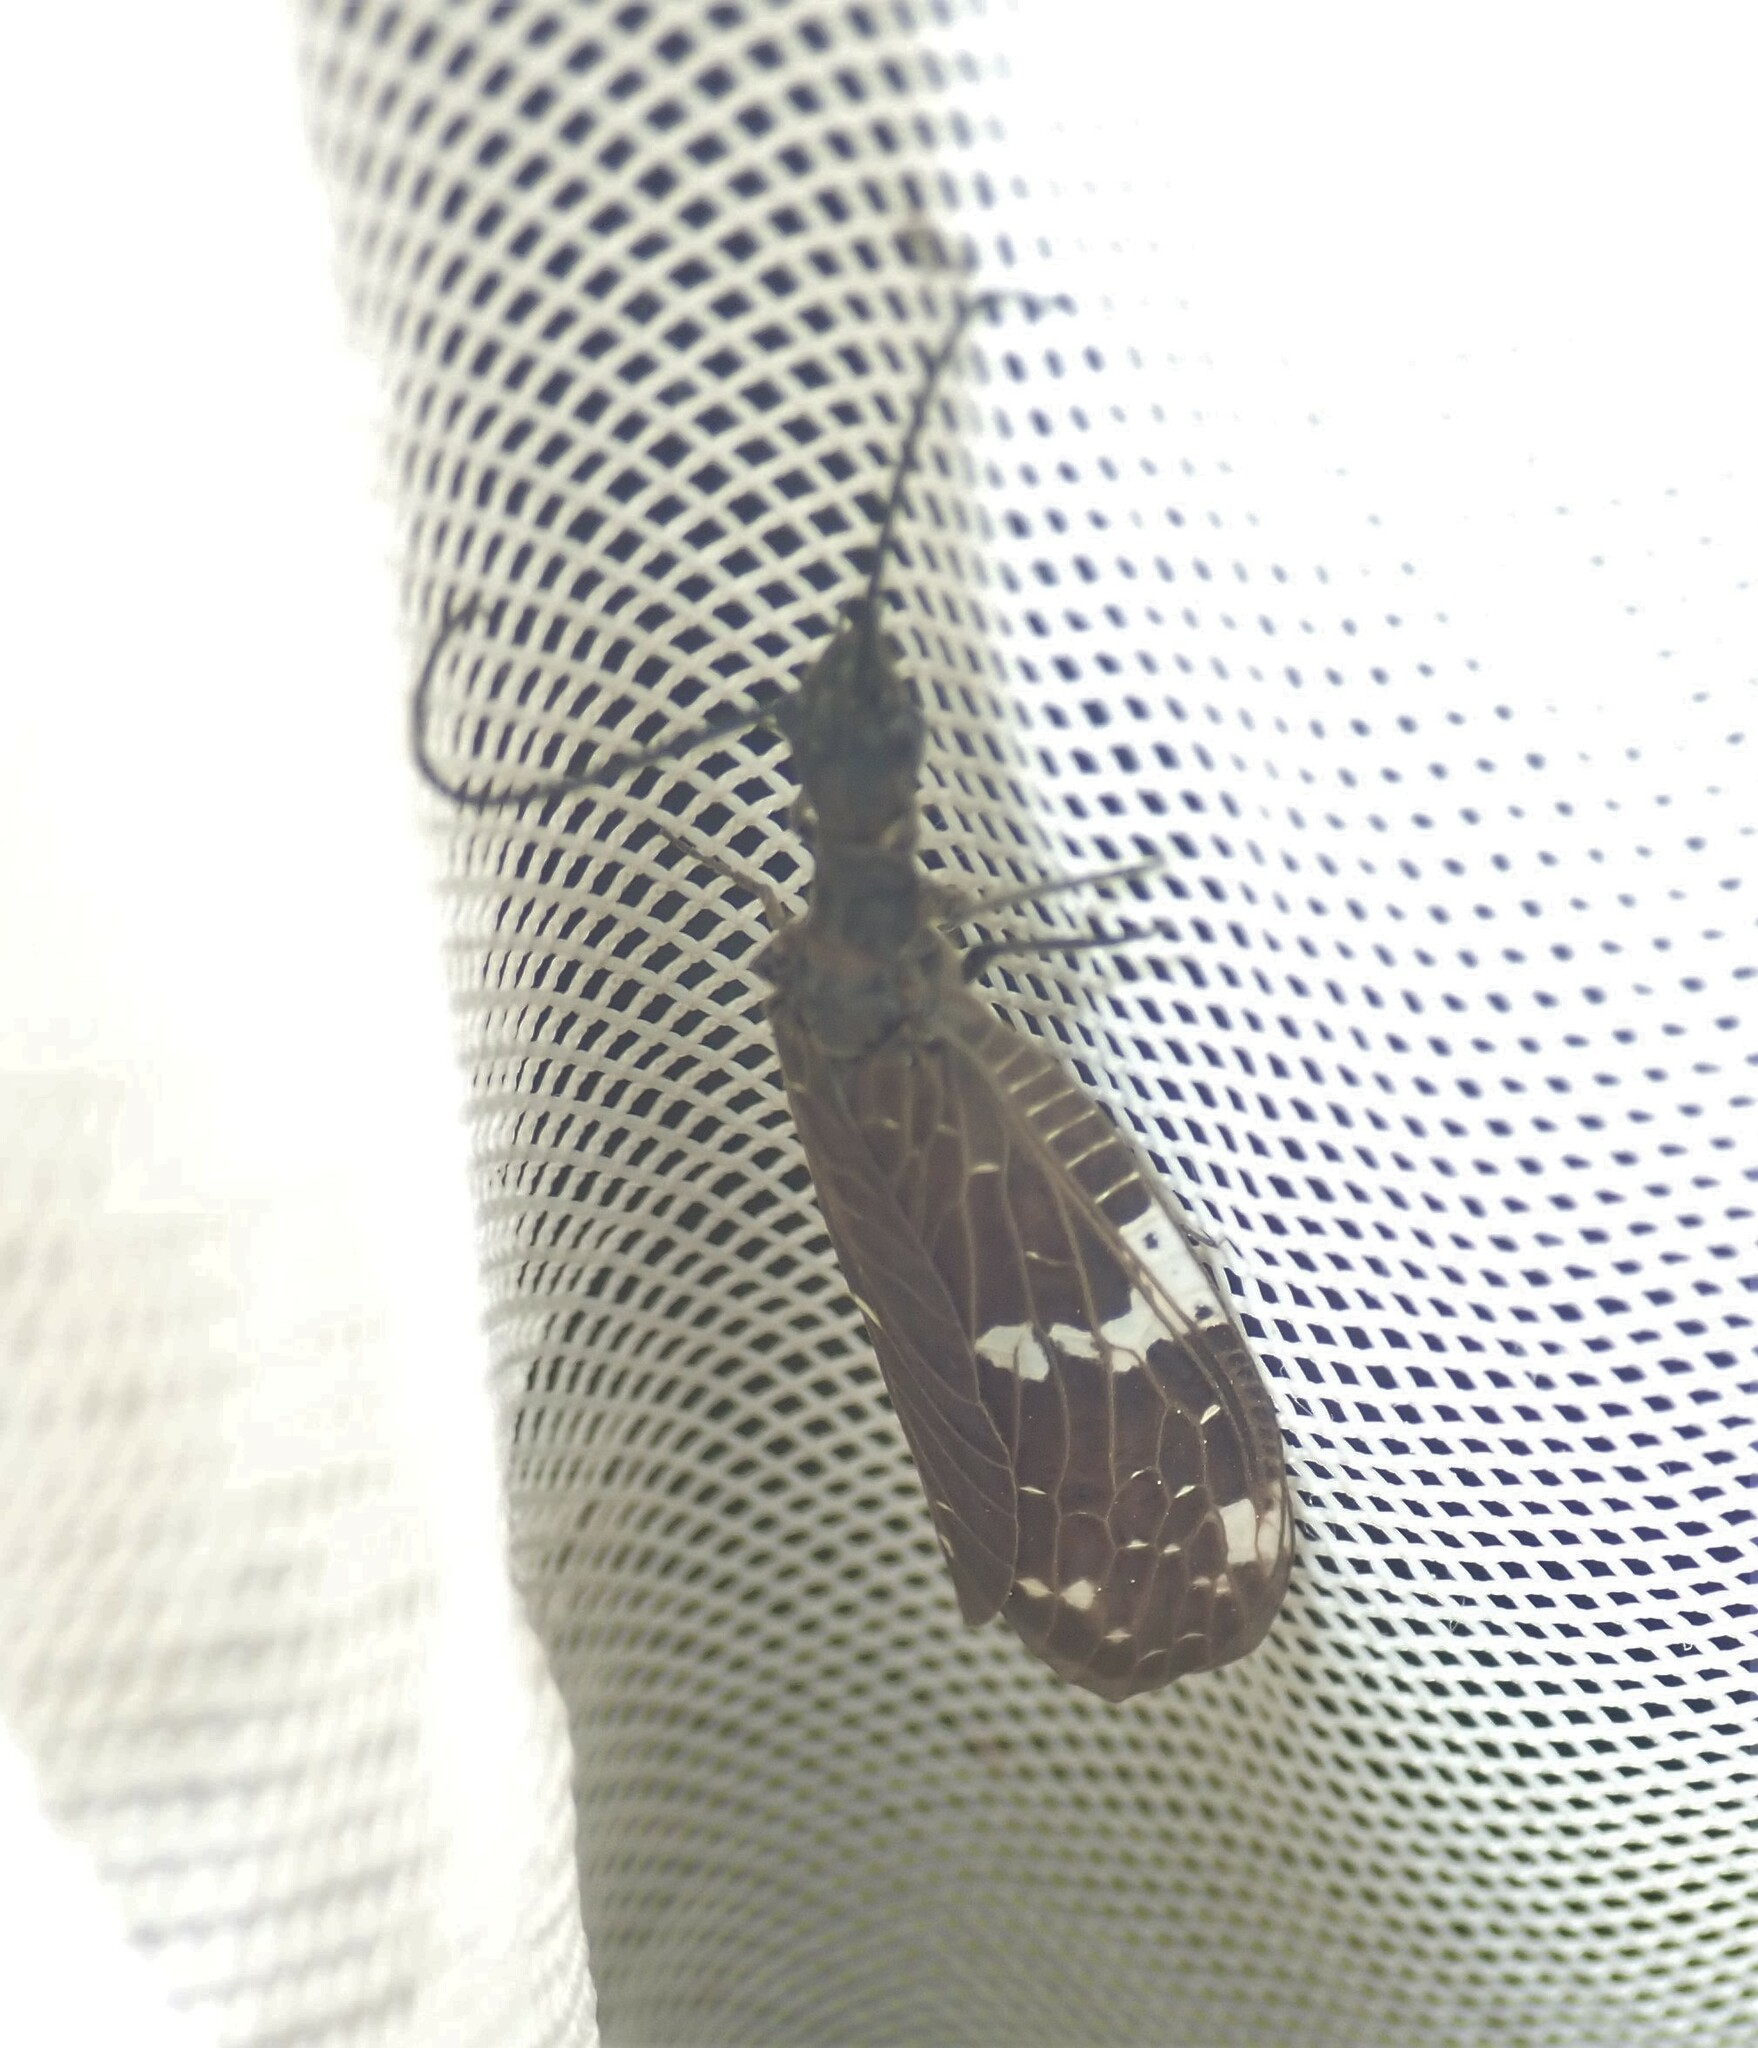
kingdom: Animalia
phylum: Arthropoda
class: Insecta
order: Megaloptera
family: Corydalidae
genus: Nigronia
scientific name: Nigronia serricornis
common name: Serrate dark fishfly
